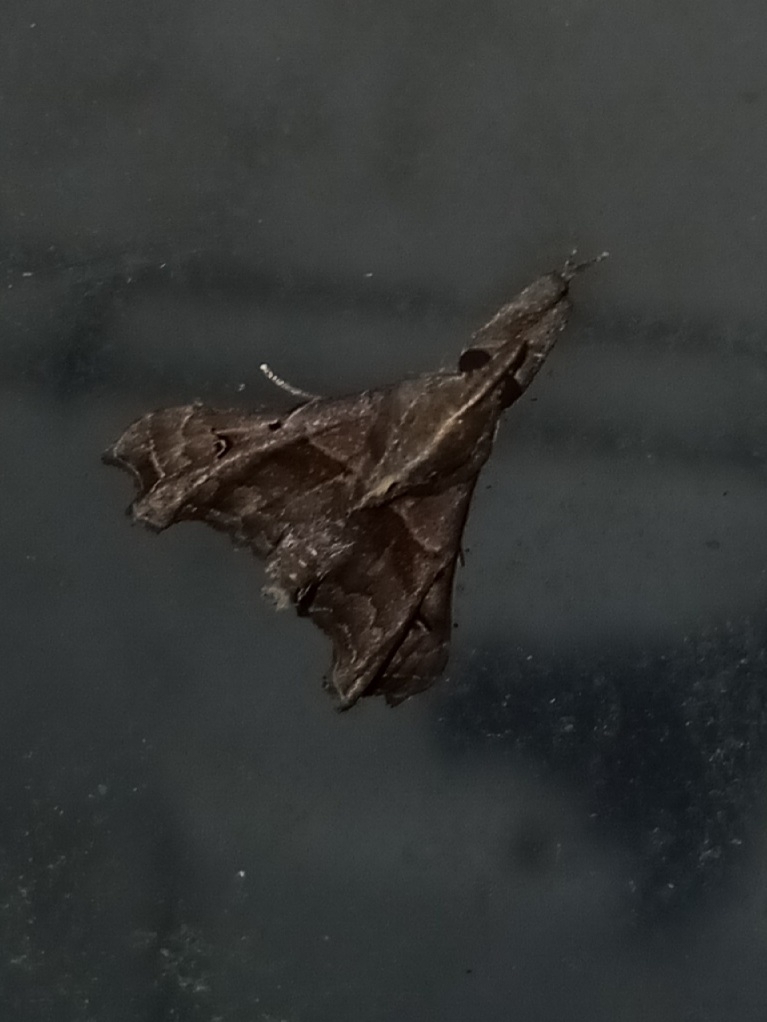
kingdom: Animalia
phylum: Arthropoda
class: Insecta
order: Lepidoptera
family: Erebidae
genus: Palthis
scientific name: Palthis asopialis
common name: Faint-spotted palthis moth
